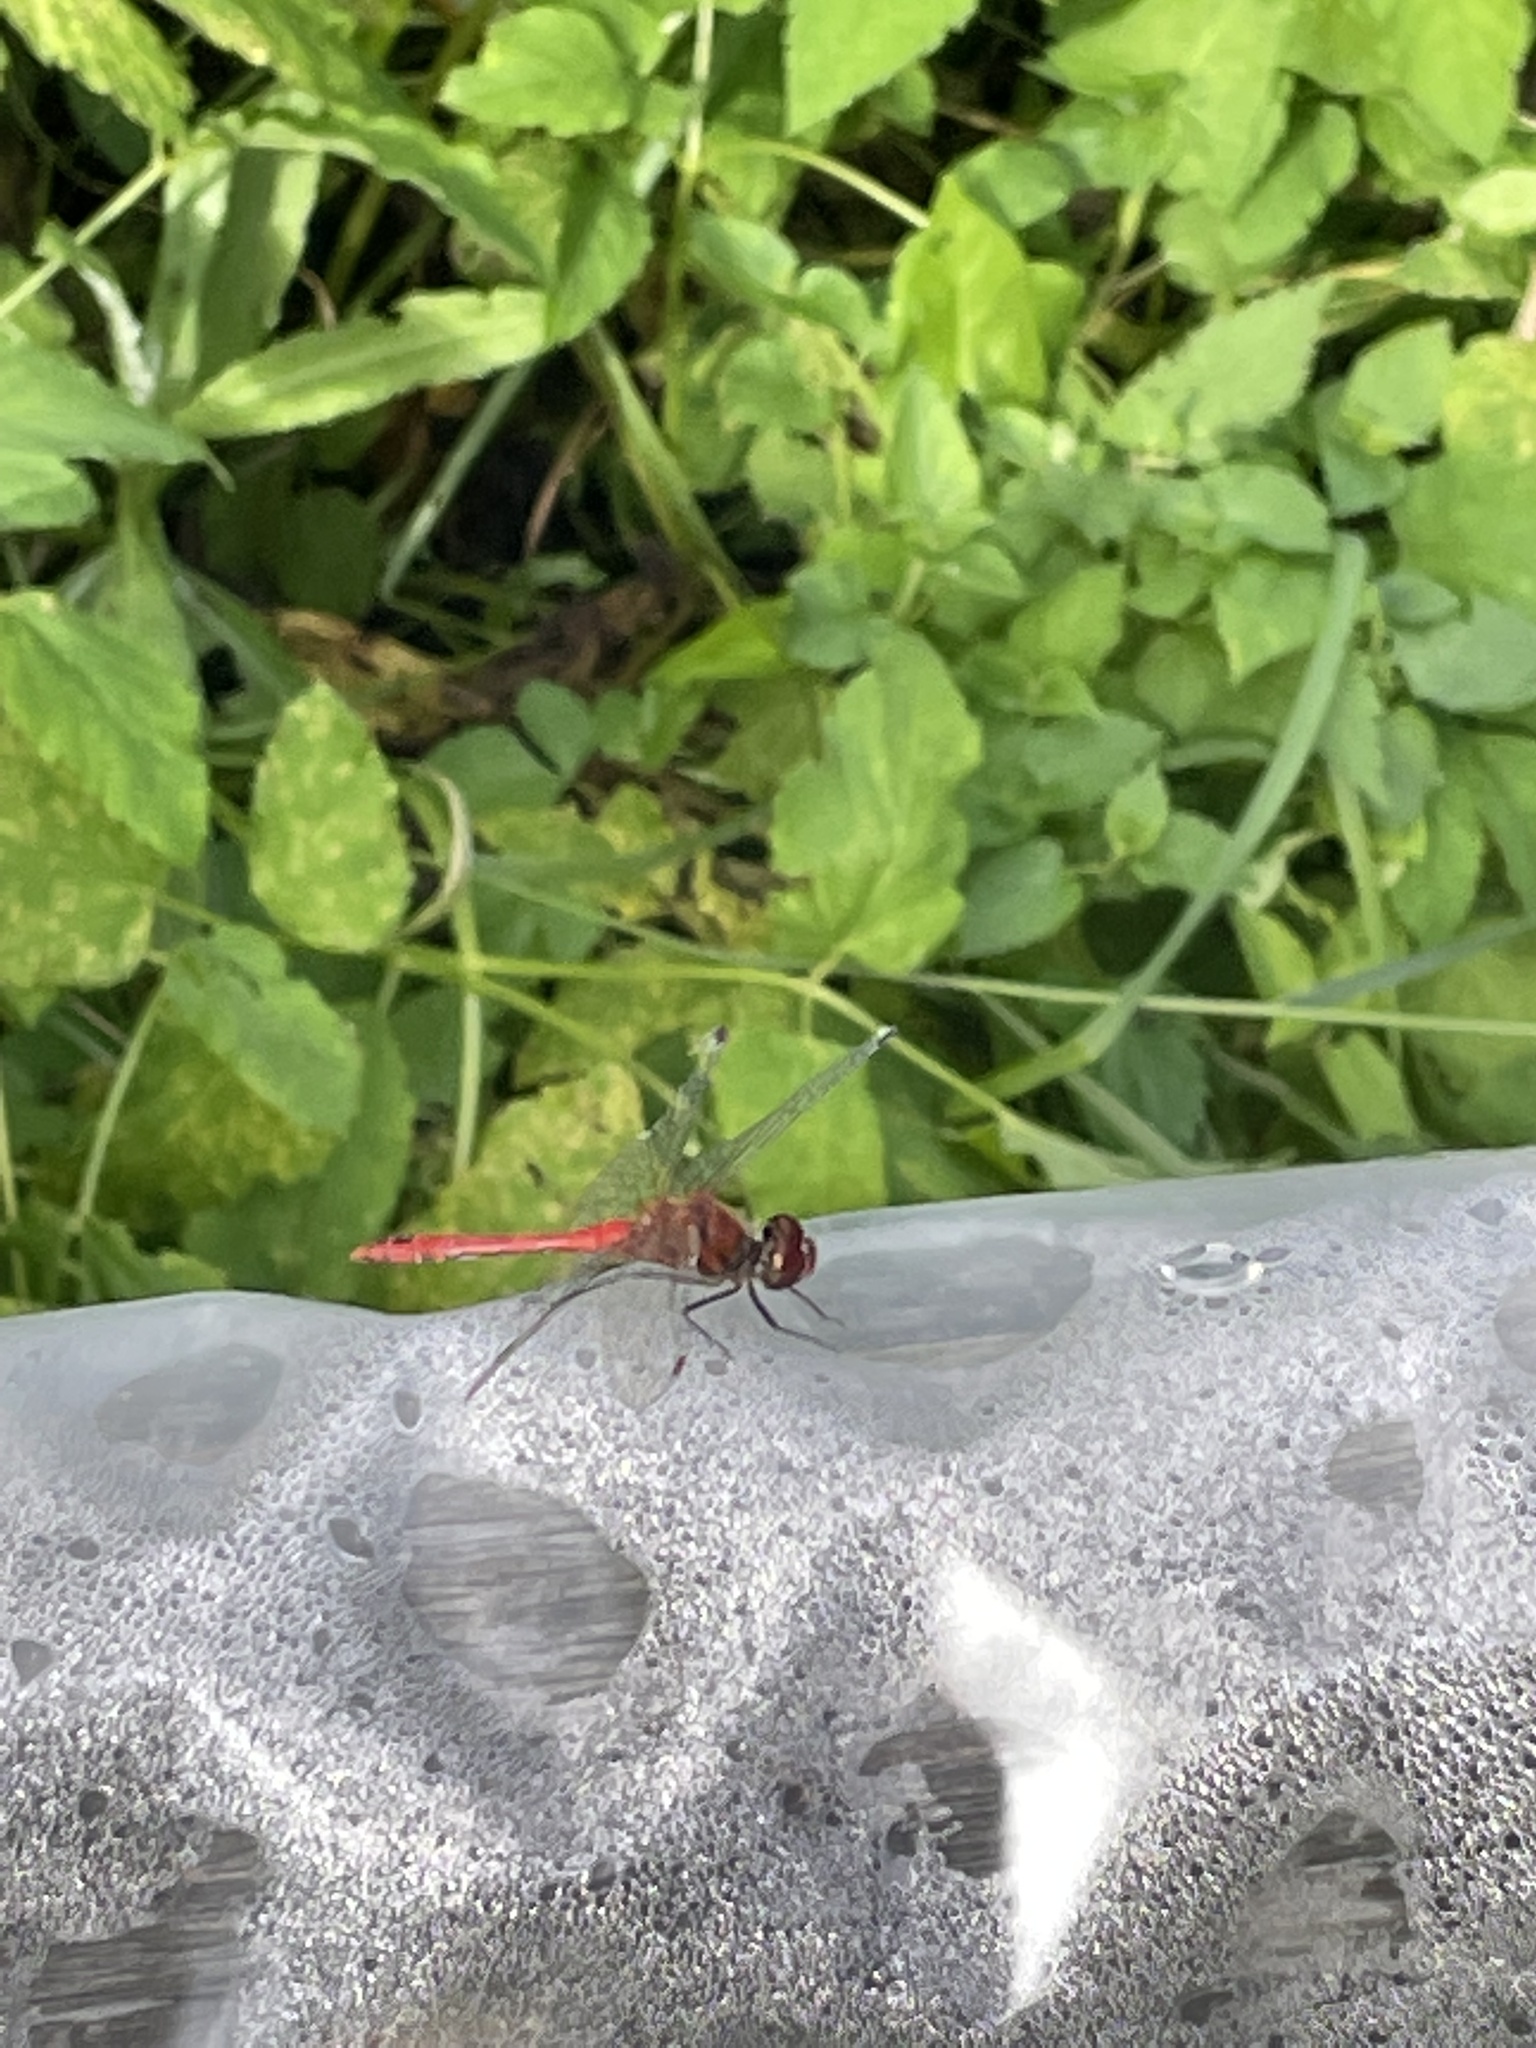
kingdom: Animalia
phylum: Arthropoda
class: Insecta
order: Odonata
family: Libellulidae
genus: Sympetrum
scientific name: Sympetrum sanguineum
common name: Ruddy darter
